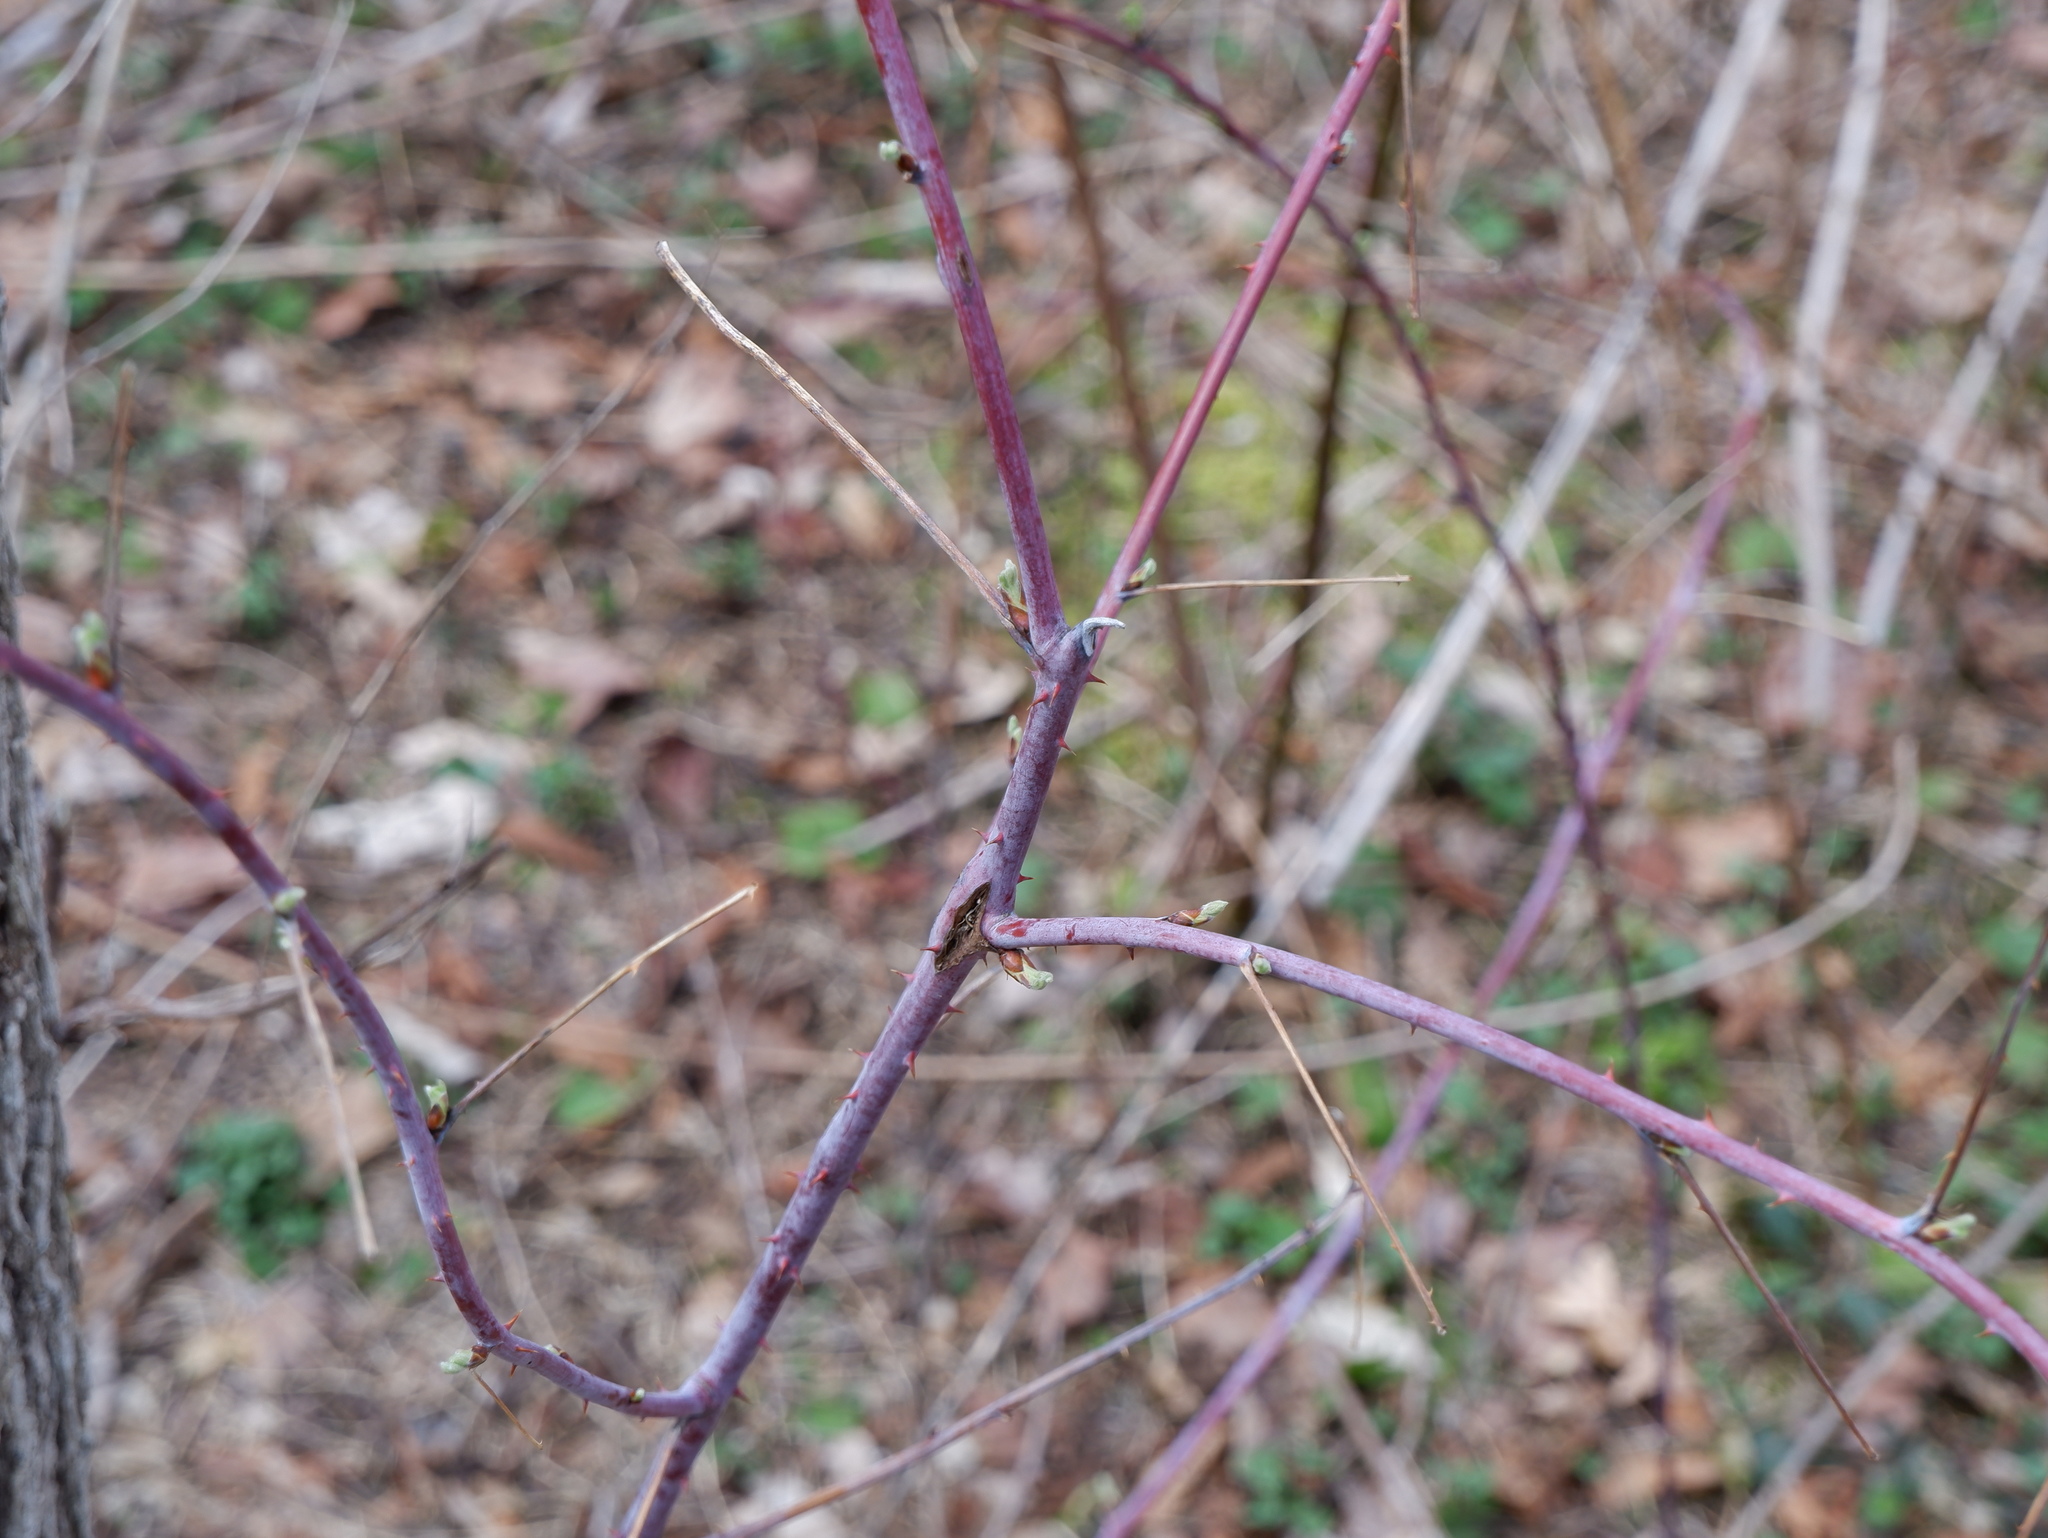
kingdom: Plantae
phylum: Tracheophyta
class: Magnoliopsida
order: Rosales
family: Rosaceae
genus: Rubus
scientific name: Rubus occidentalis
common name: Black raspberry
